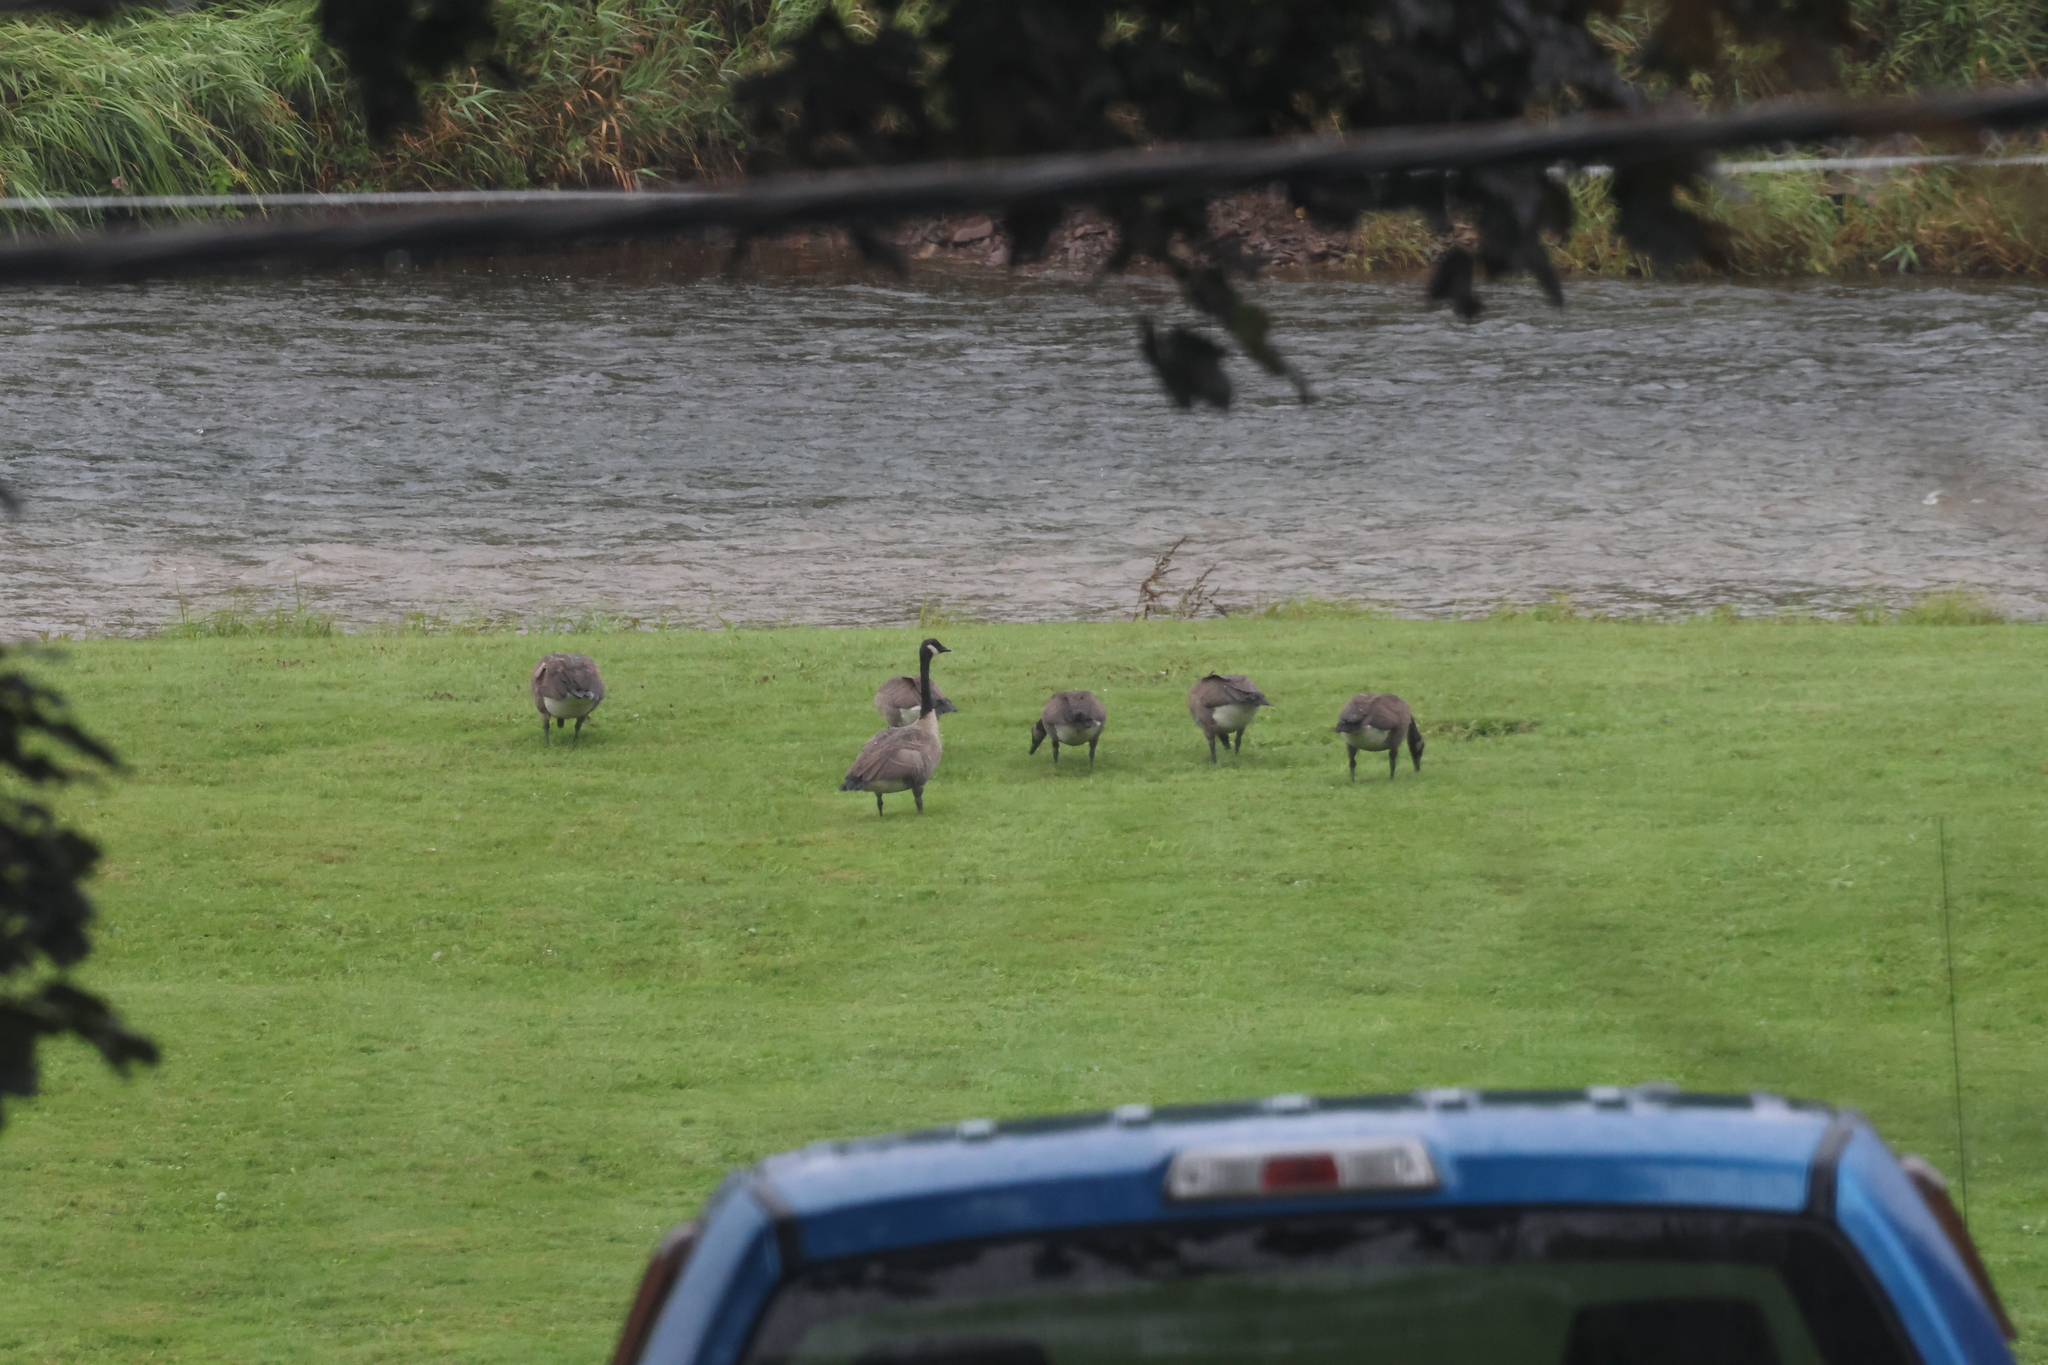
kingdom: Animalia
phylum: Chordata
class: Aves
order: Anseriformes
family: Anatidae
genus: Branta
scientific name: Branta canadensis
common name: Canada goose
